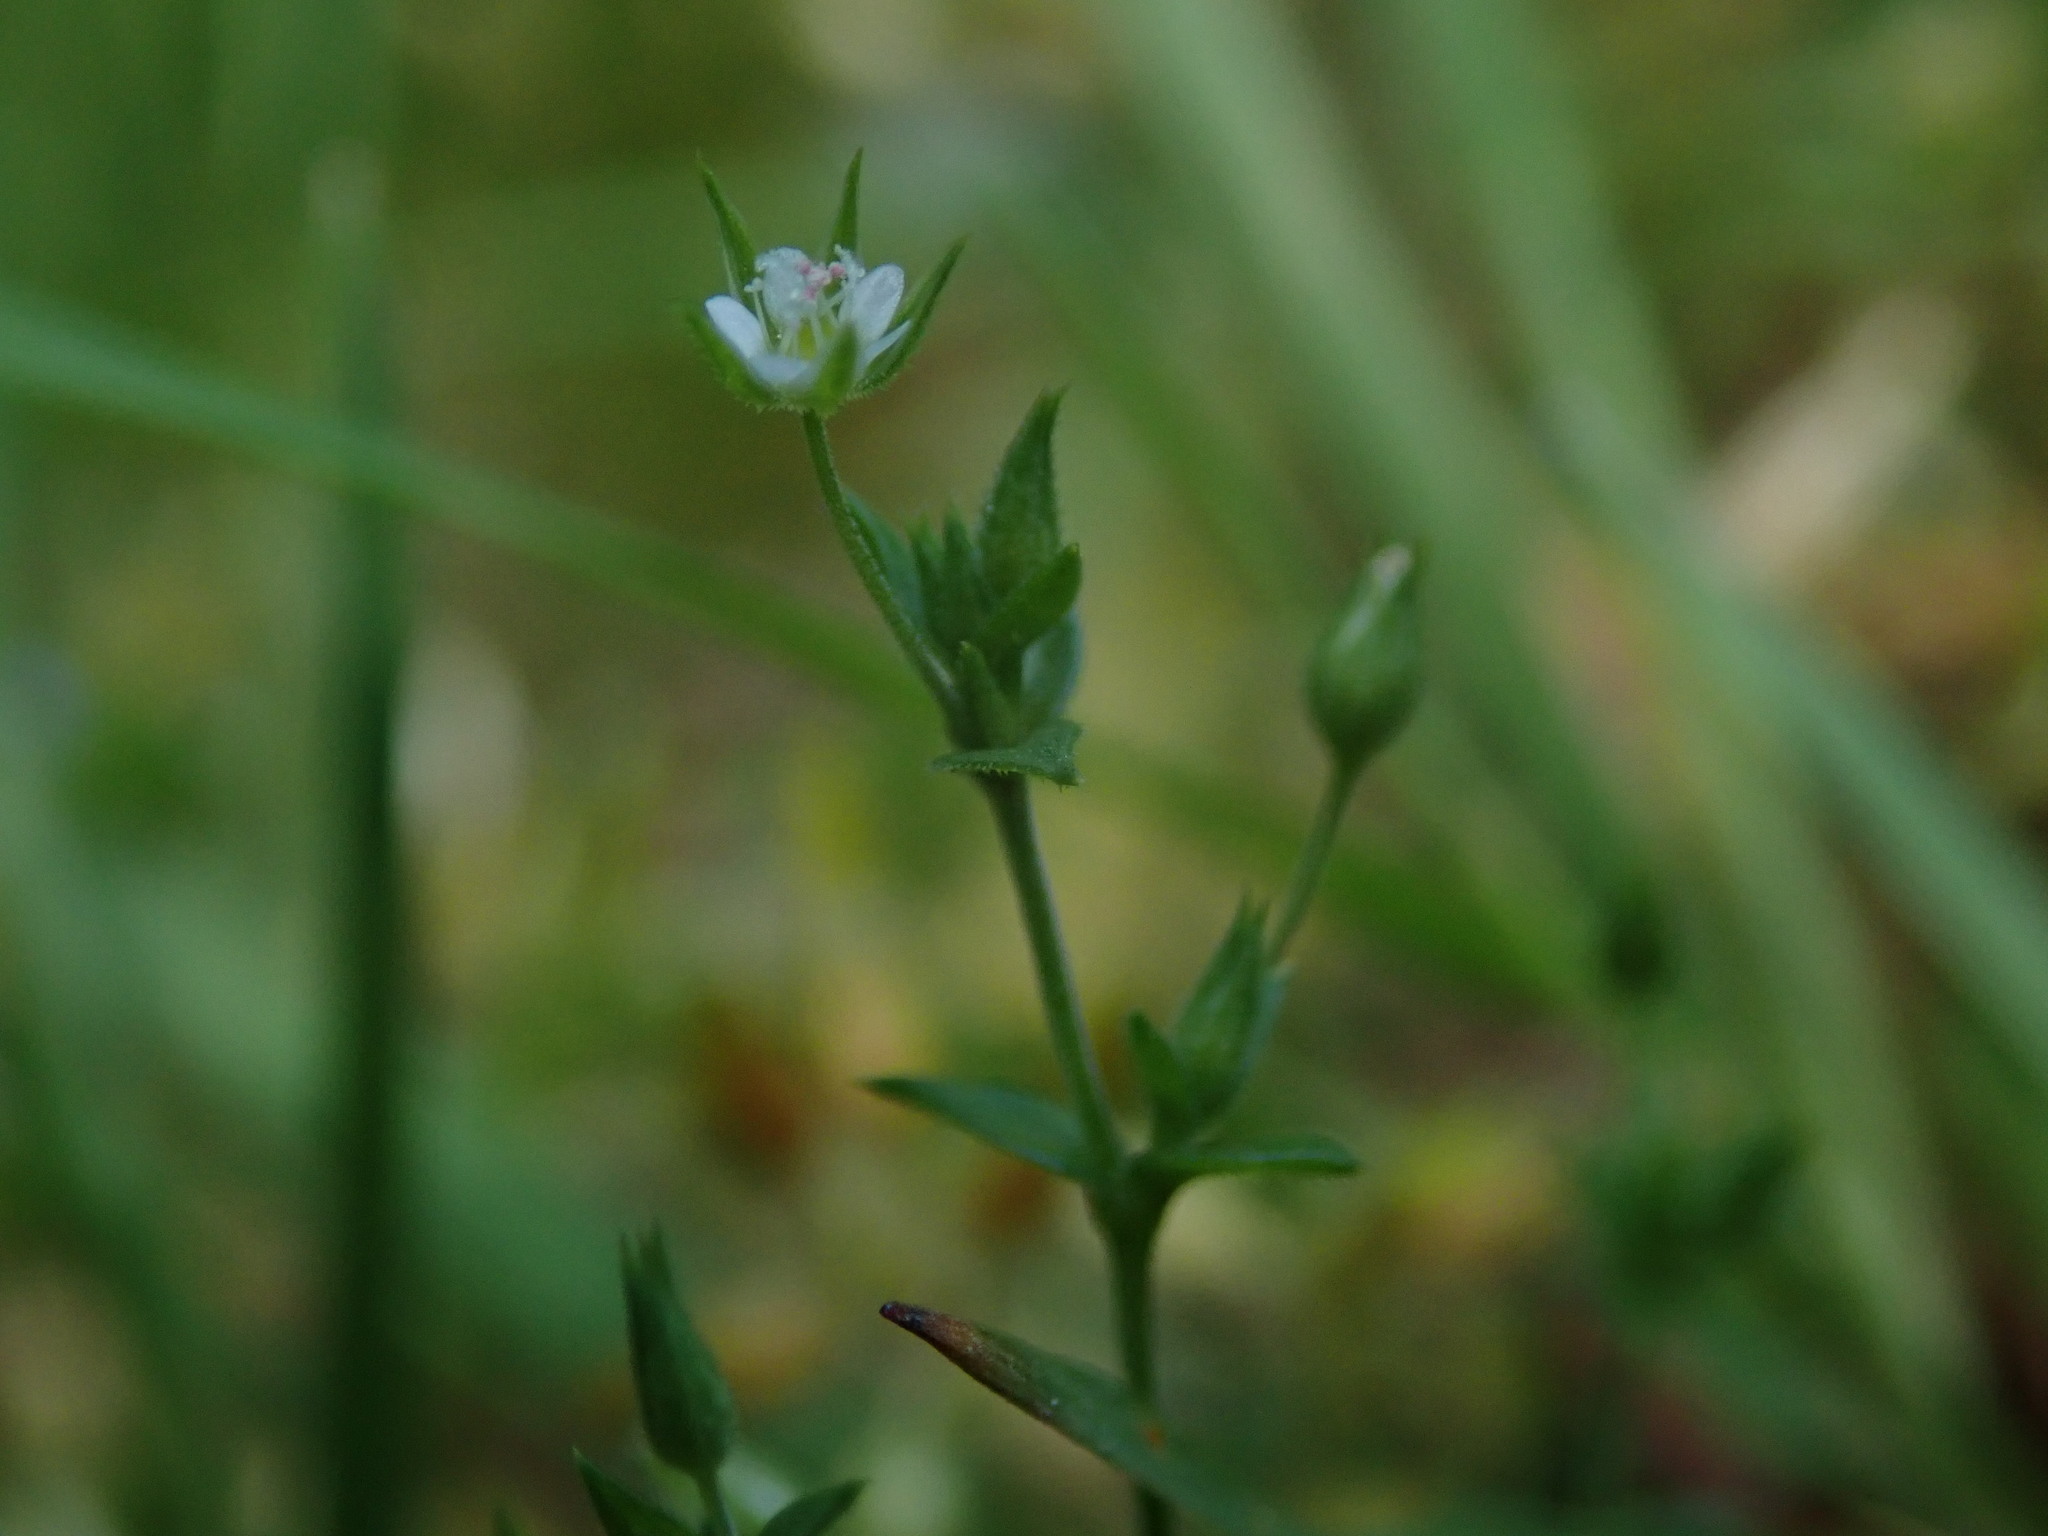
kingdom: Plantae
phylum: Tracheophyta
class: Magnoliopsida
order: Caryophyllales
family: Caryophyllaceae
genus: Arenaria
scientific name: Arenaria serpyllifolia
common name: Thyme-leaved sandwort
